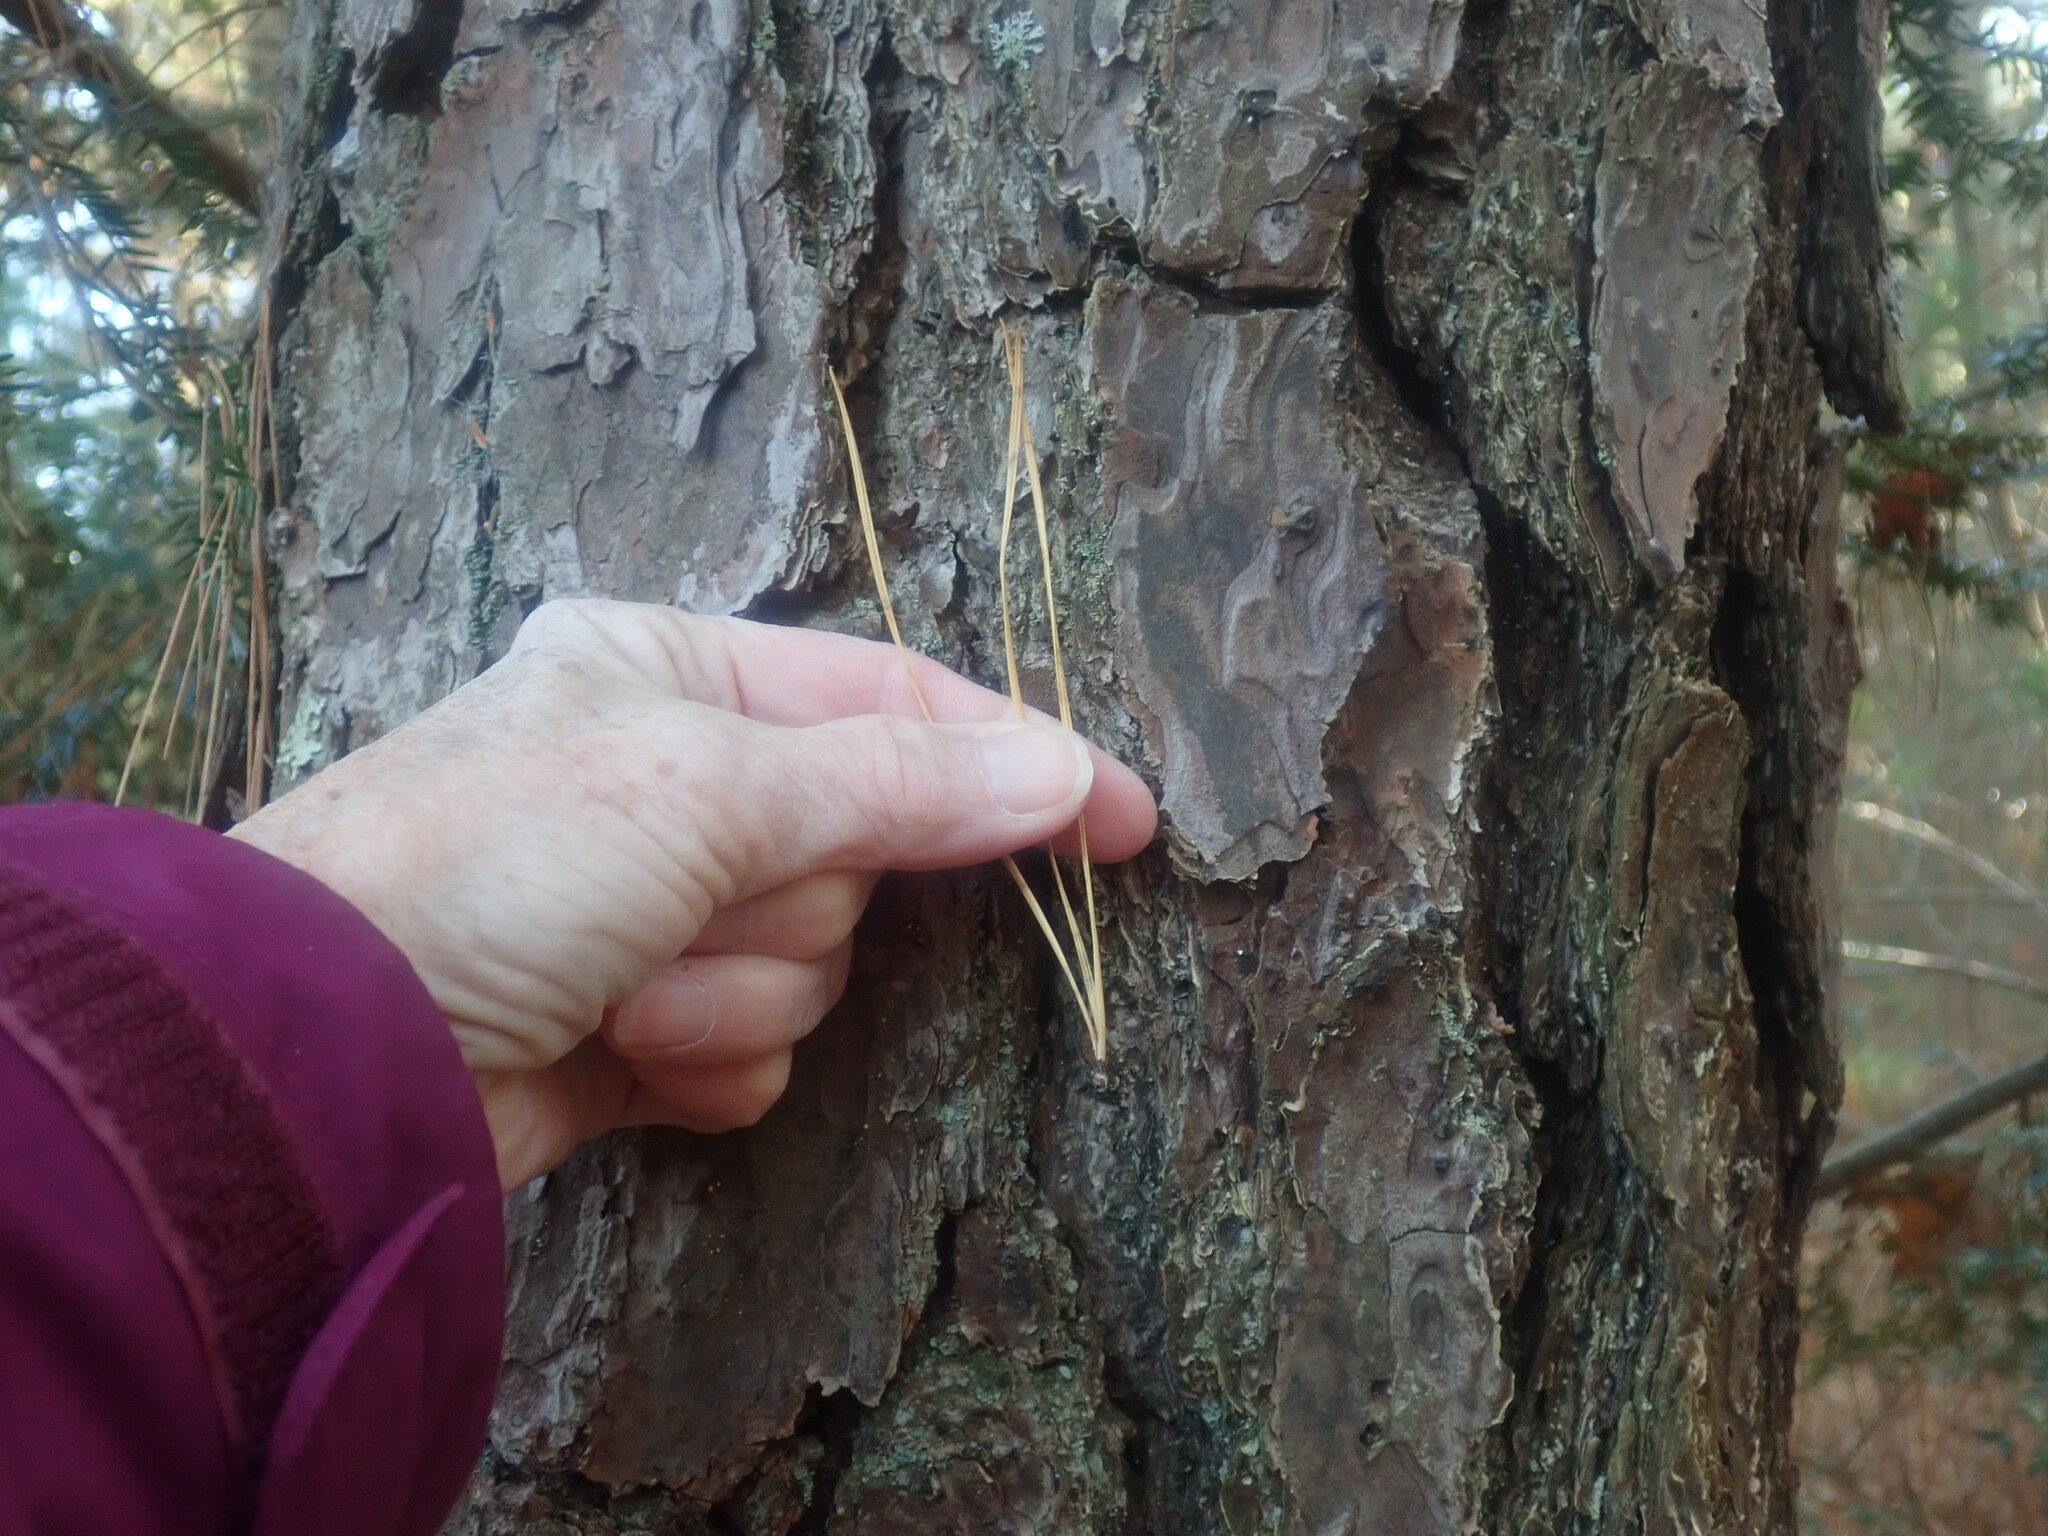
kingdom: Plantae
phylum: Tracheophyta
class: Pinopsida
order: Pinales
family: Pinaceae
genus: Pinus
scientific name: Pinus rigida
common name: Pitch pine
